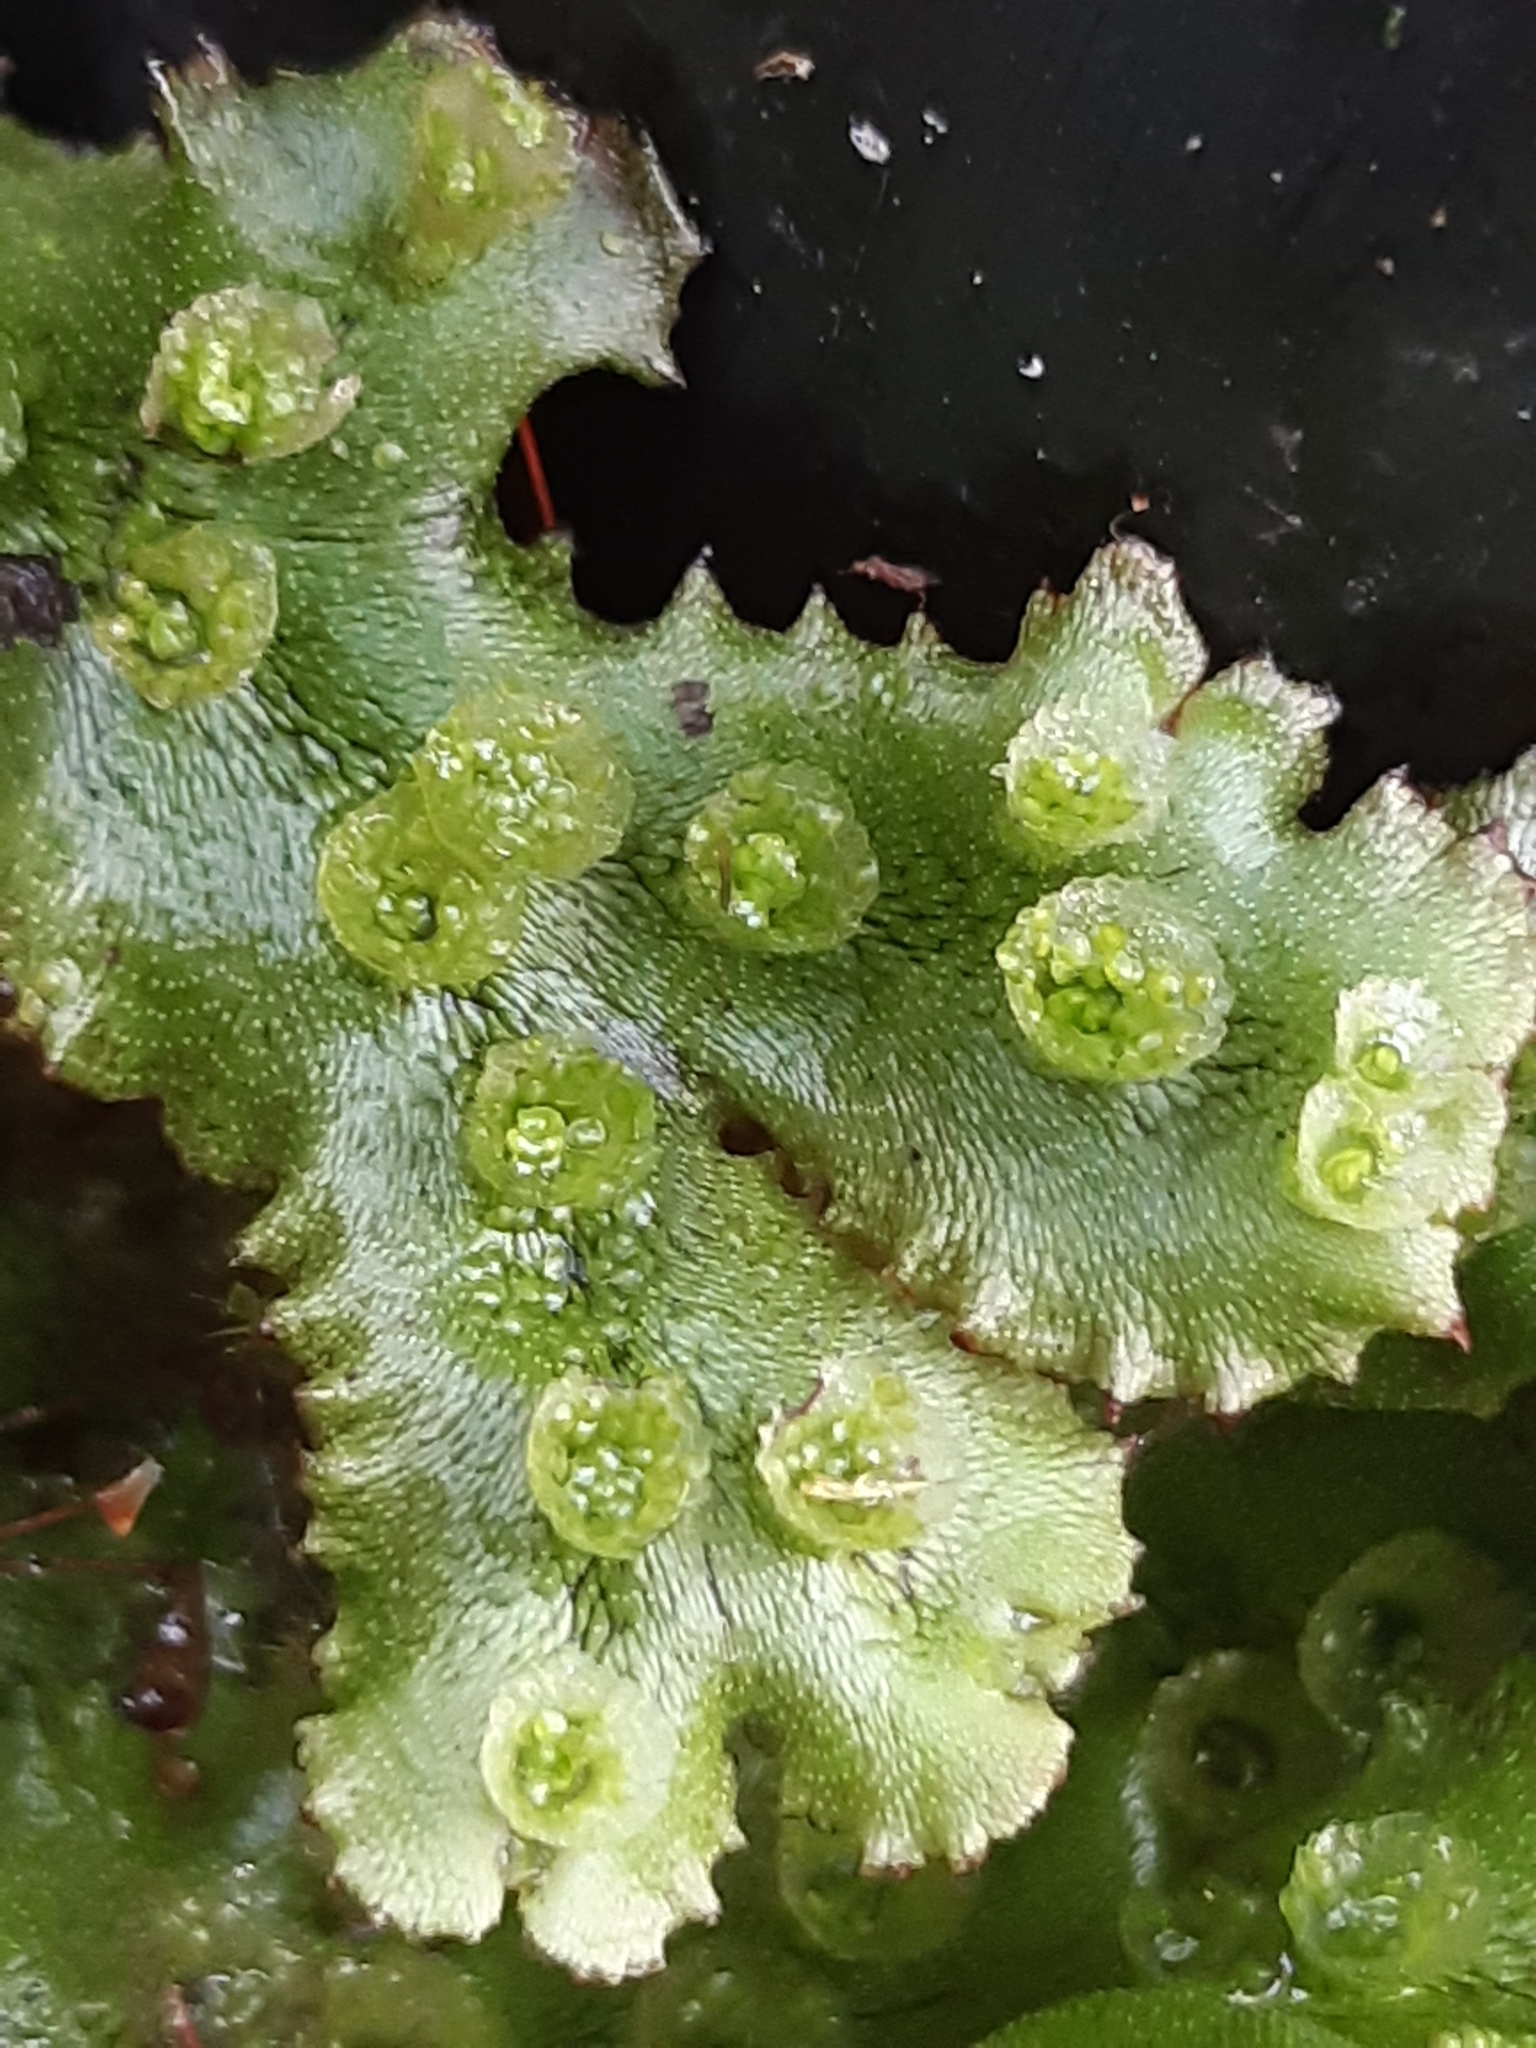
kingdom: Plantae
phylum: Marchantiophyta
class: Marchantiopsida
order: Marchantiales
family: Marchantiaceae
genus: Marchantia
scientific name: Marchantia polymorpha
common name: Common liverwort
